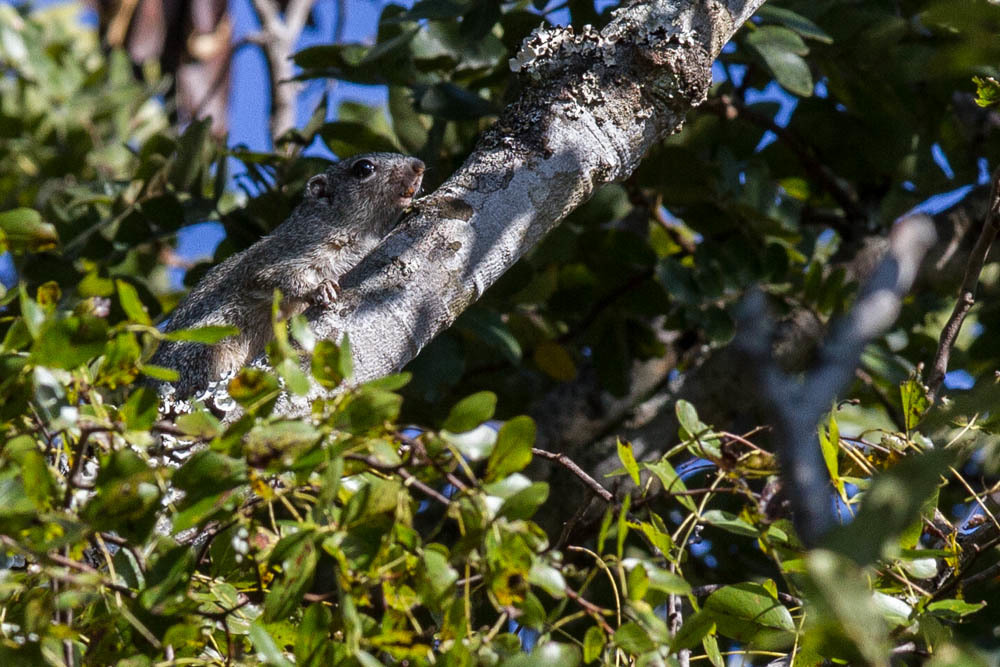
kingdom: Animalia
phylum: Chordata
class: Mammalia
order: Rodentia
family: Sciuridae
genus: Heliosciurus
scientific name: Heliosciurus gambianus
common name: Gambian sun squirrel
